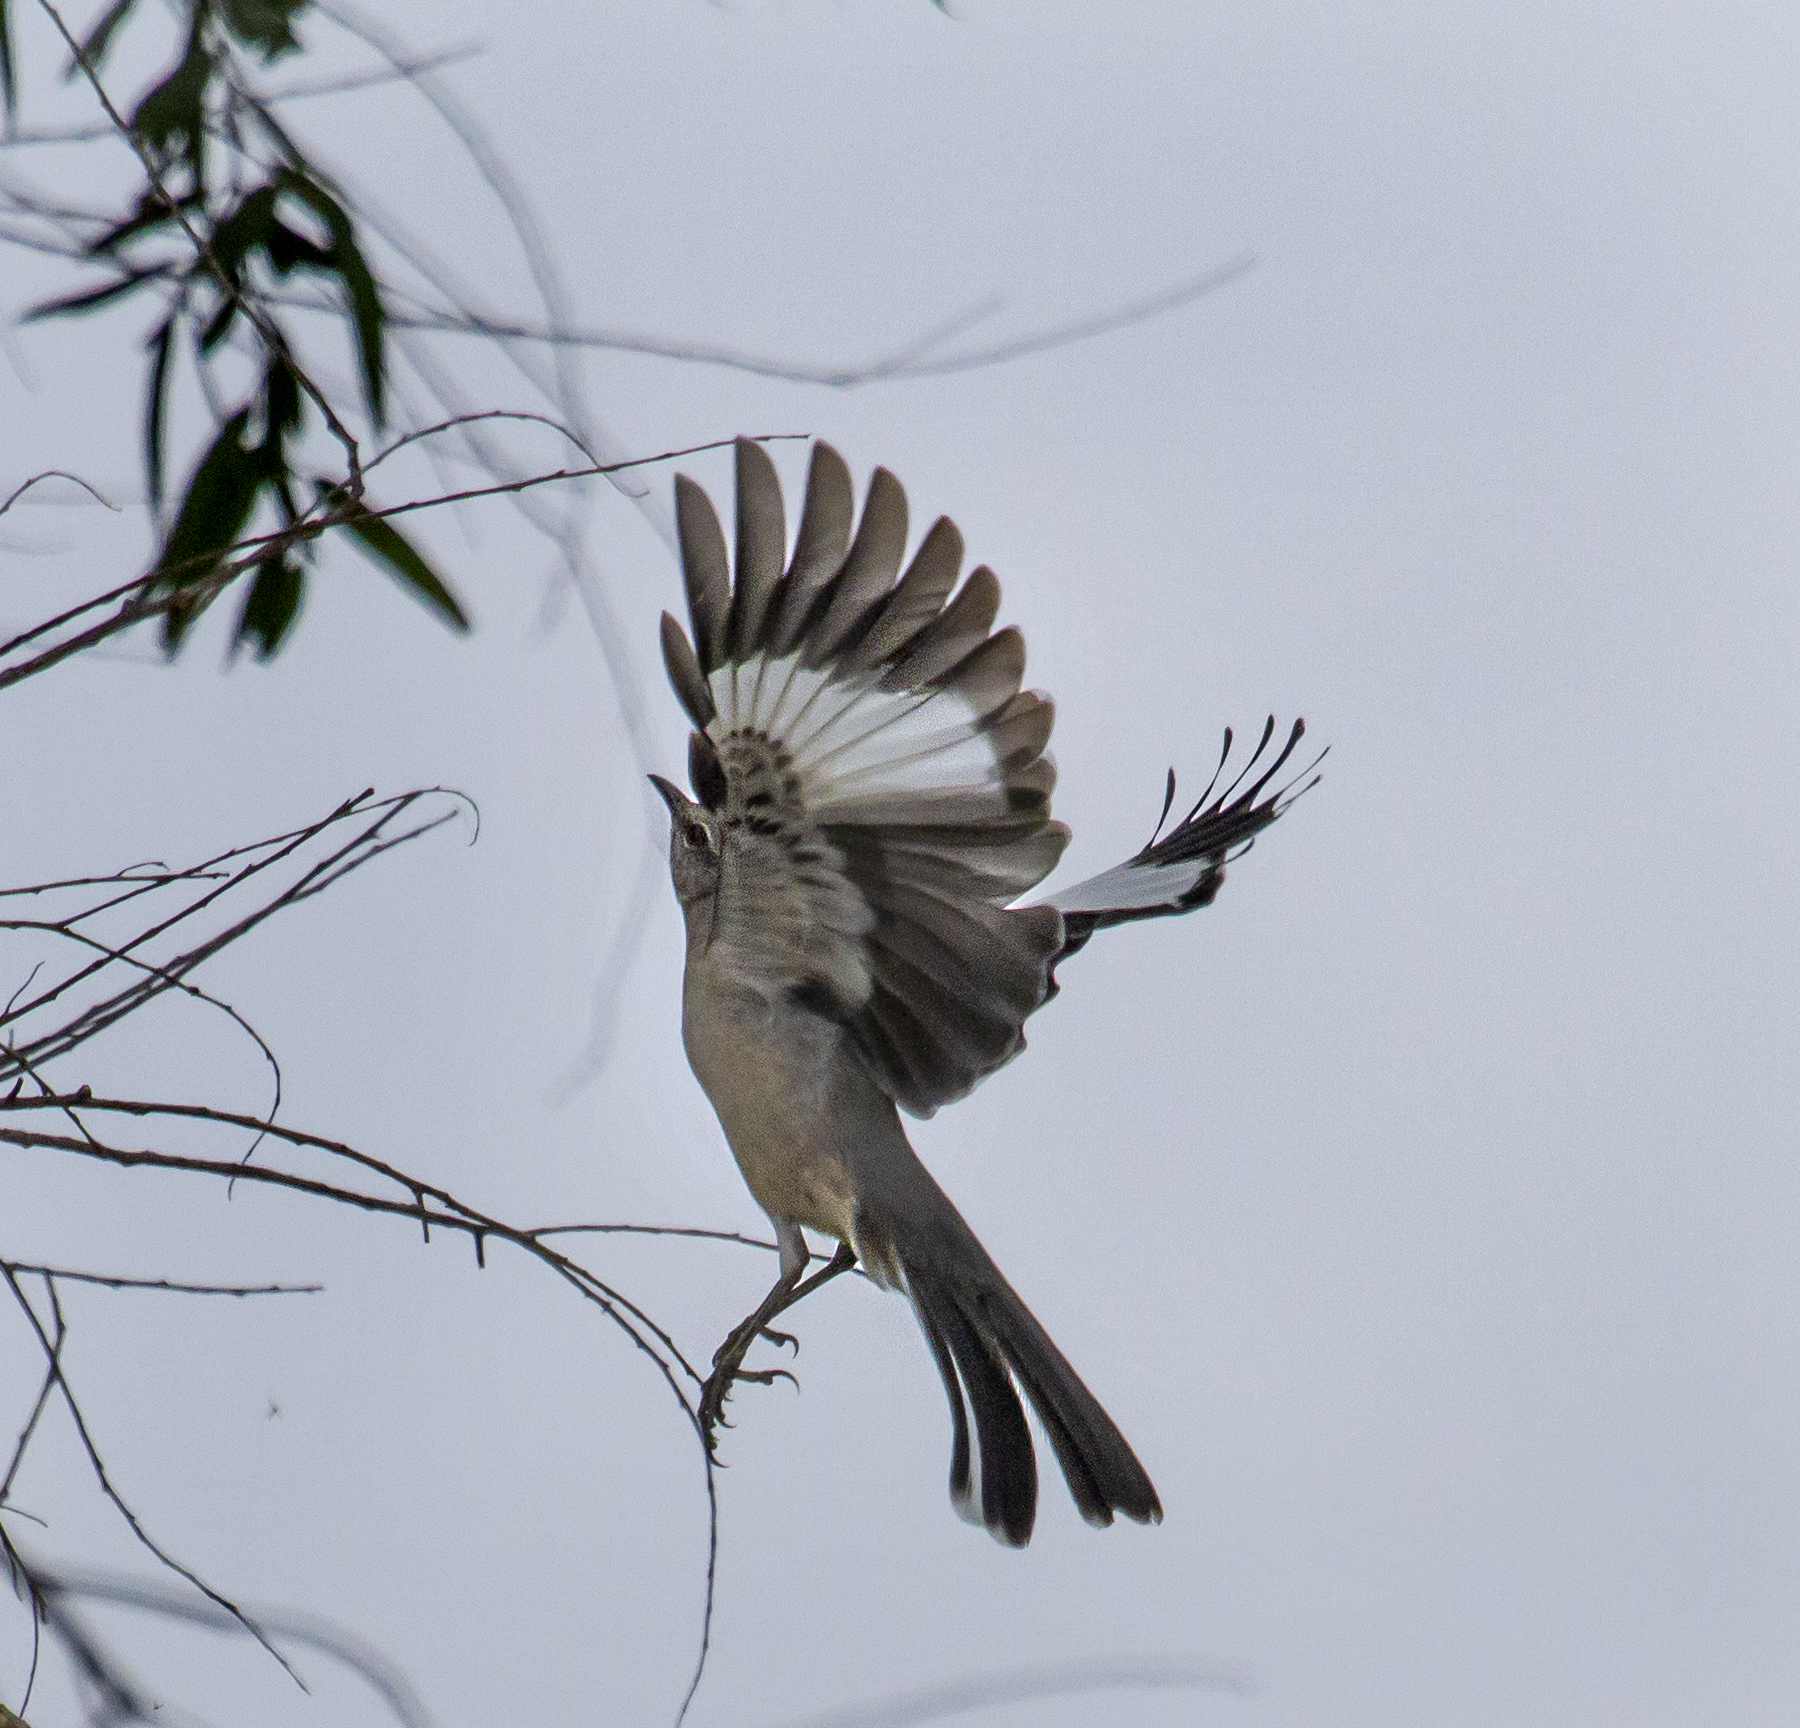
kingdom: Animalia
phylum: Chordata
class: Aves
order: Passeriformes
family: Mimidae
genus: Mimus
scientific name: Mimus polyglottos
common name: Northern mockingbird
